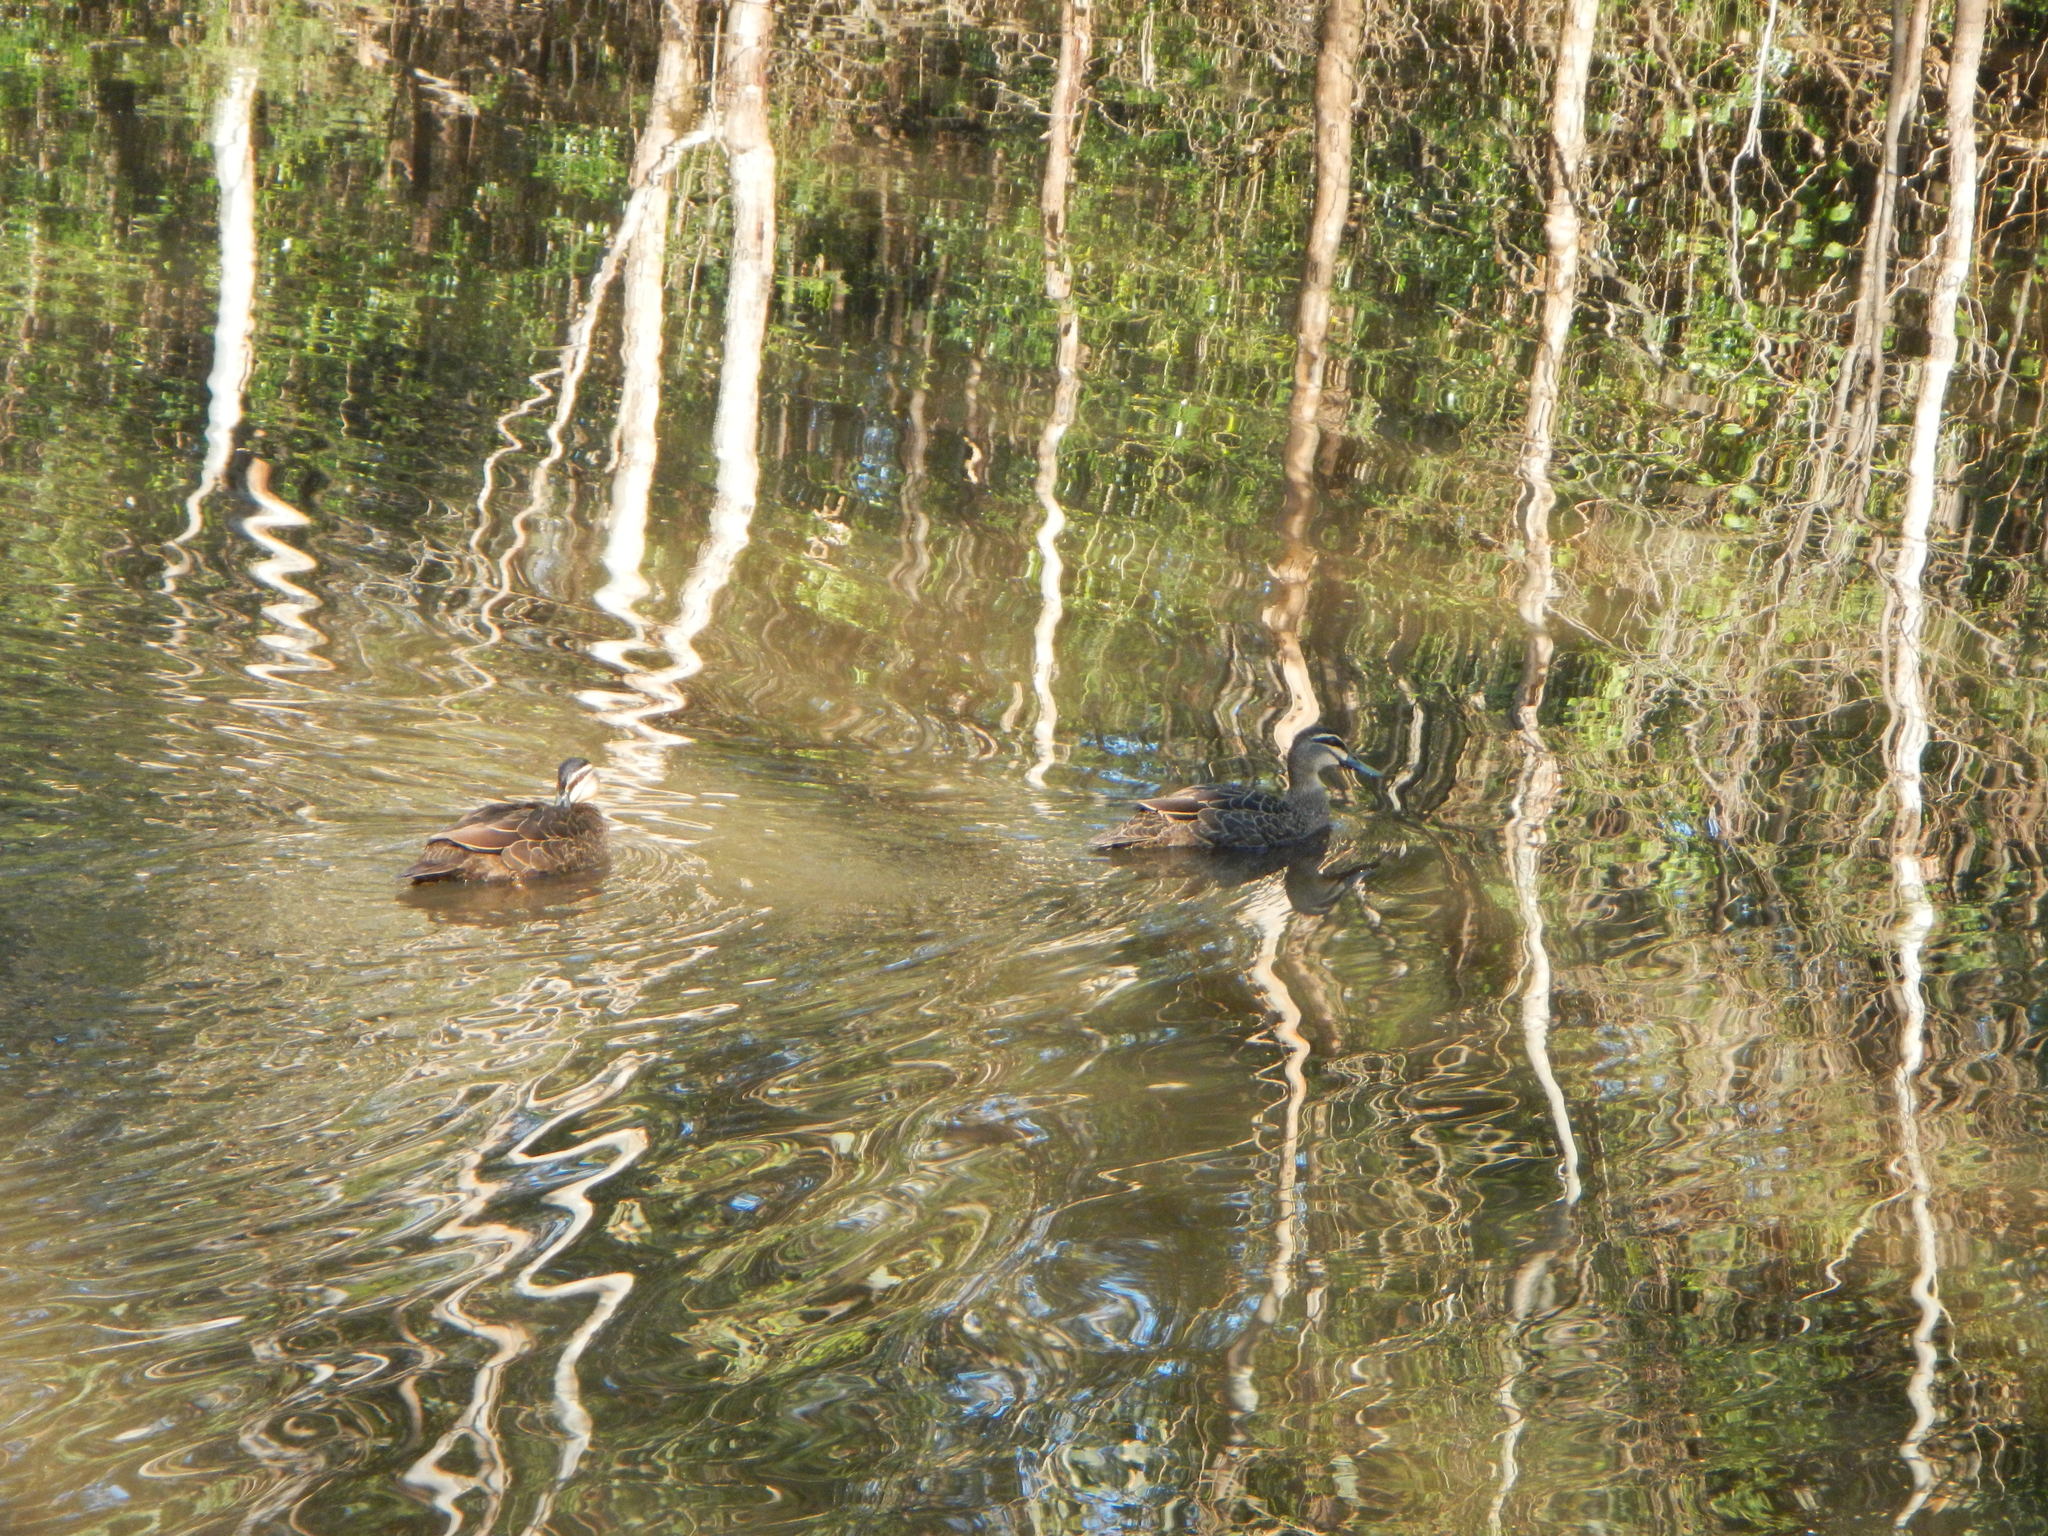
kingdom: Animalia
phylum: Chordata
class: Aves
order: Anseriformes
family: Anatidae
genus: Anas
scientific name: Anas superciliosa
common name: Pacific black duck
